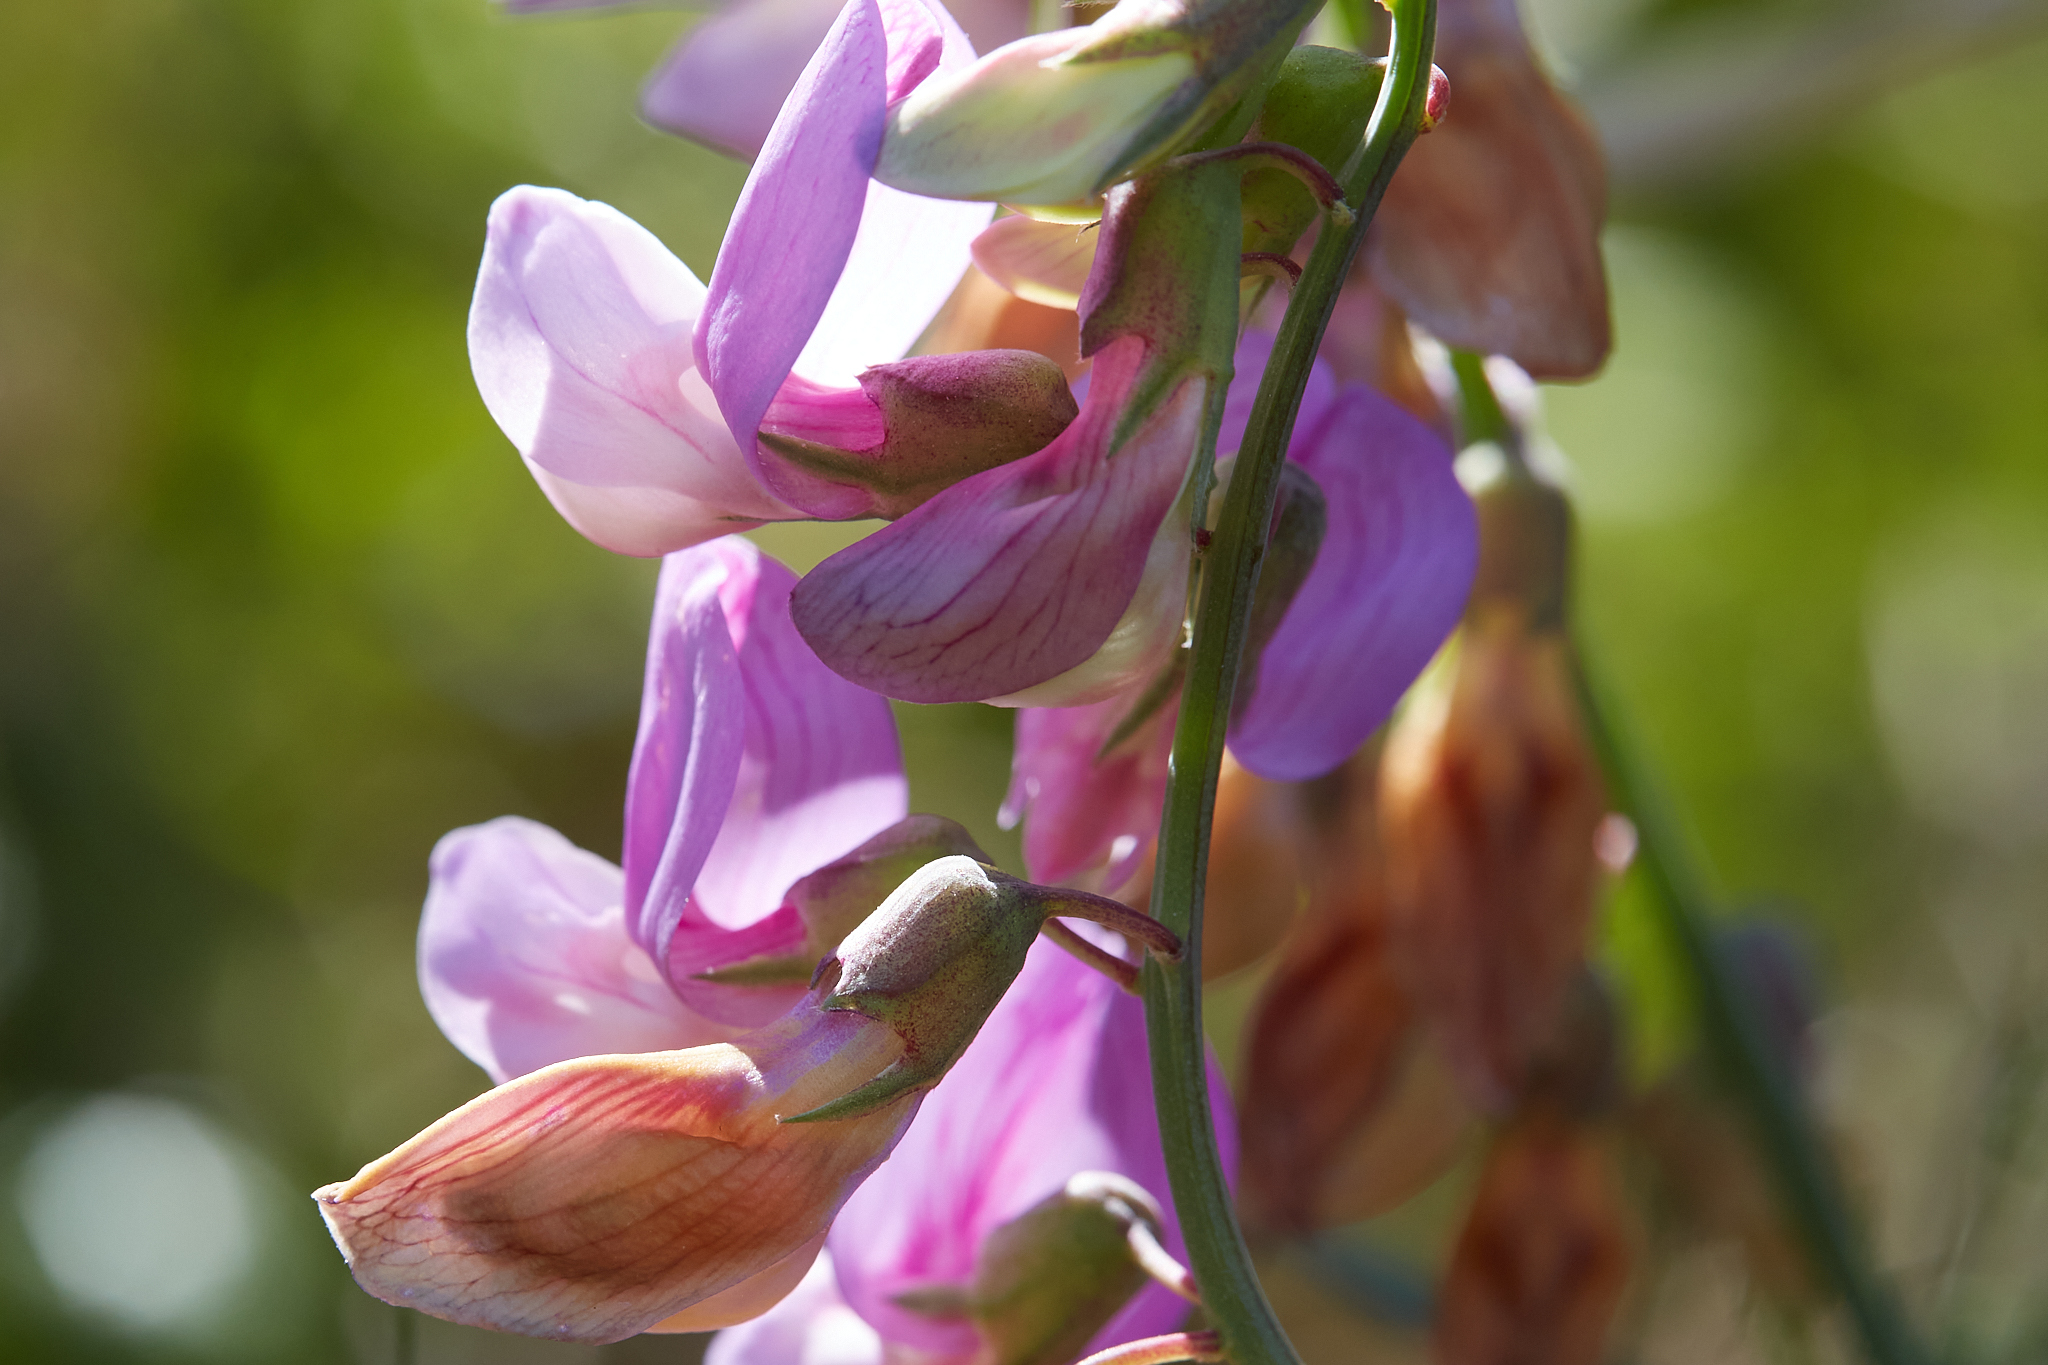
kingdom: Plantae
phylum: Tracheophyta
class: Magnoliopsida
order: Fabales
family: Fabaceae
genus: Lathyrus
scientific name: Lathyrus jepsonii
